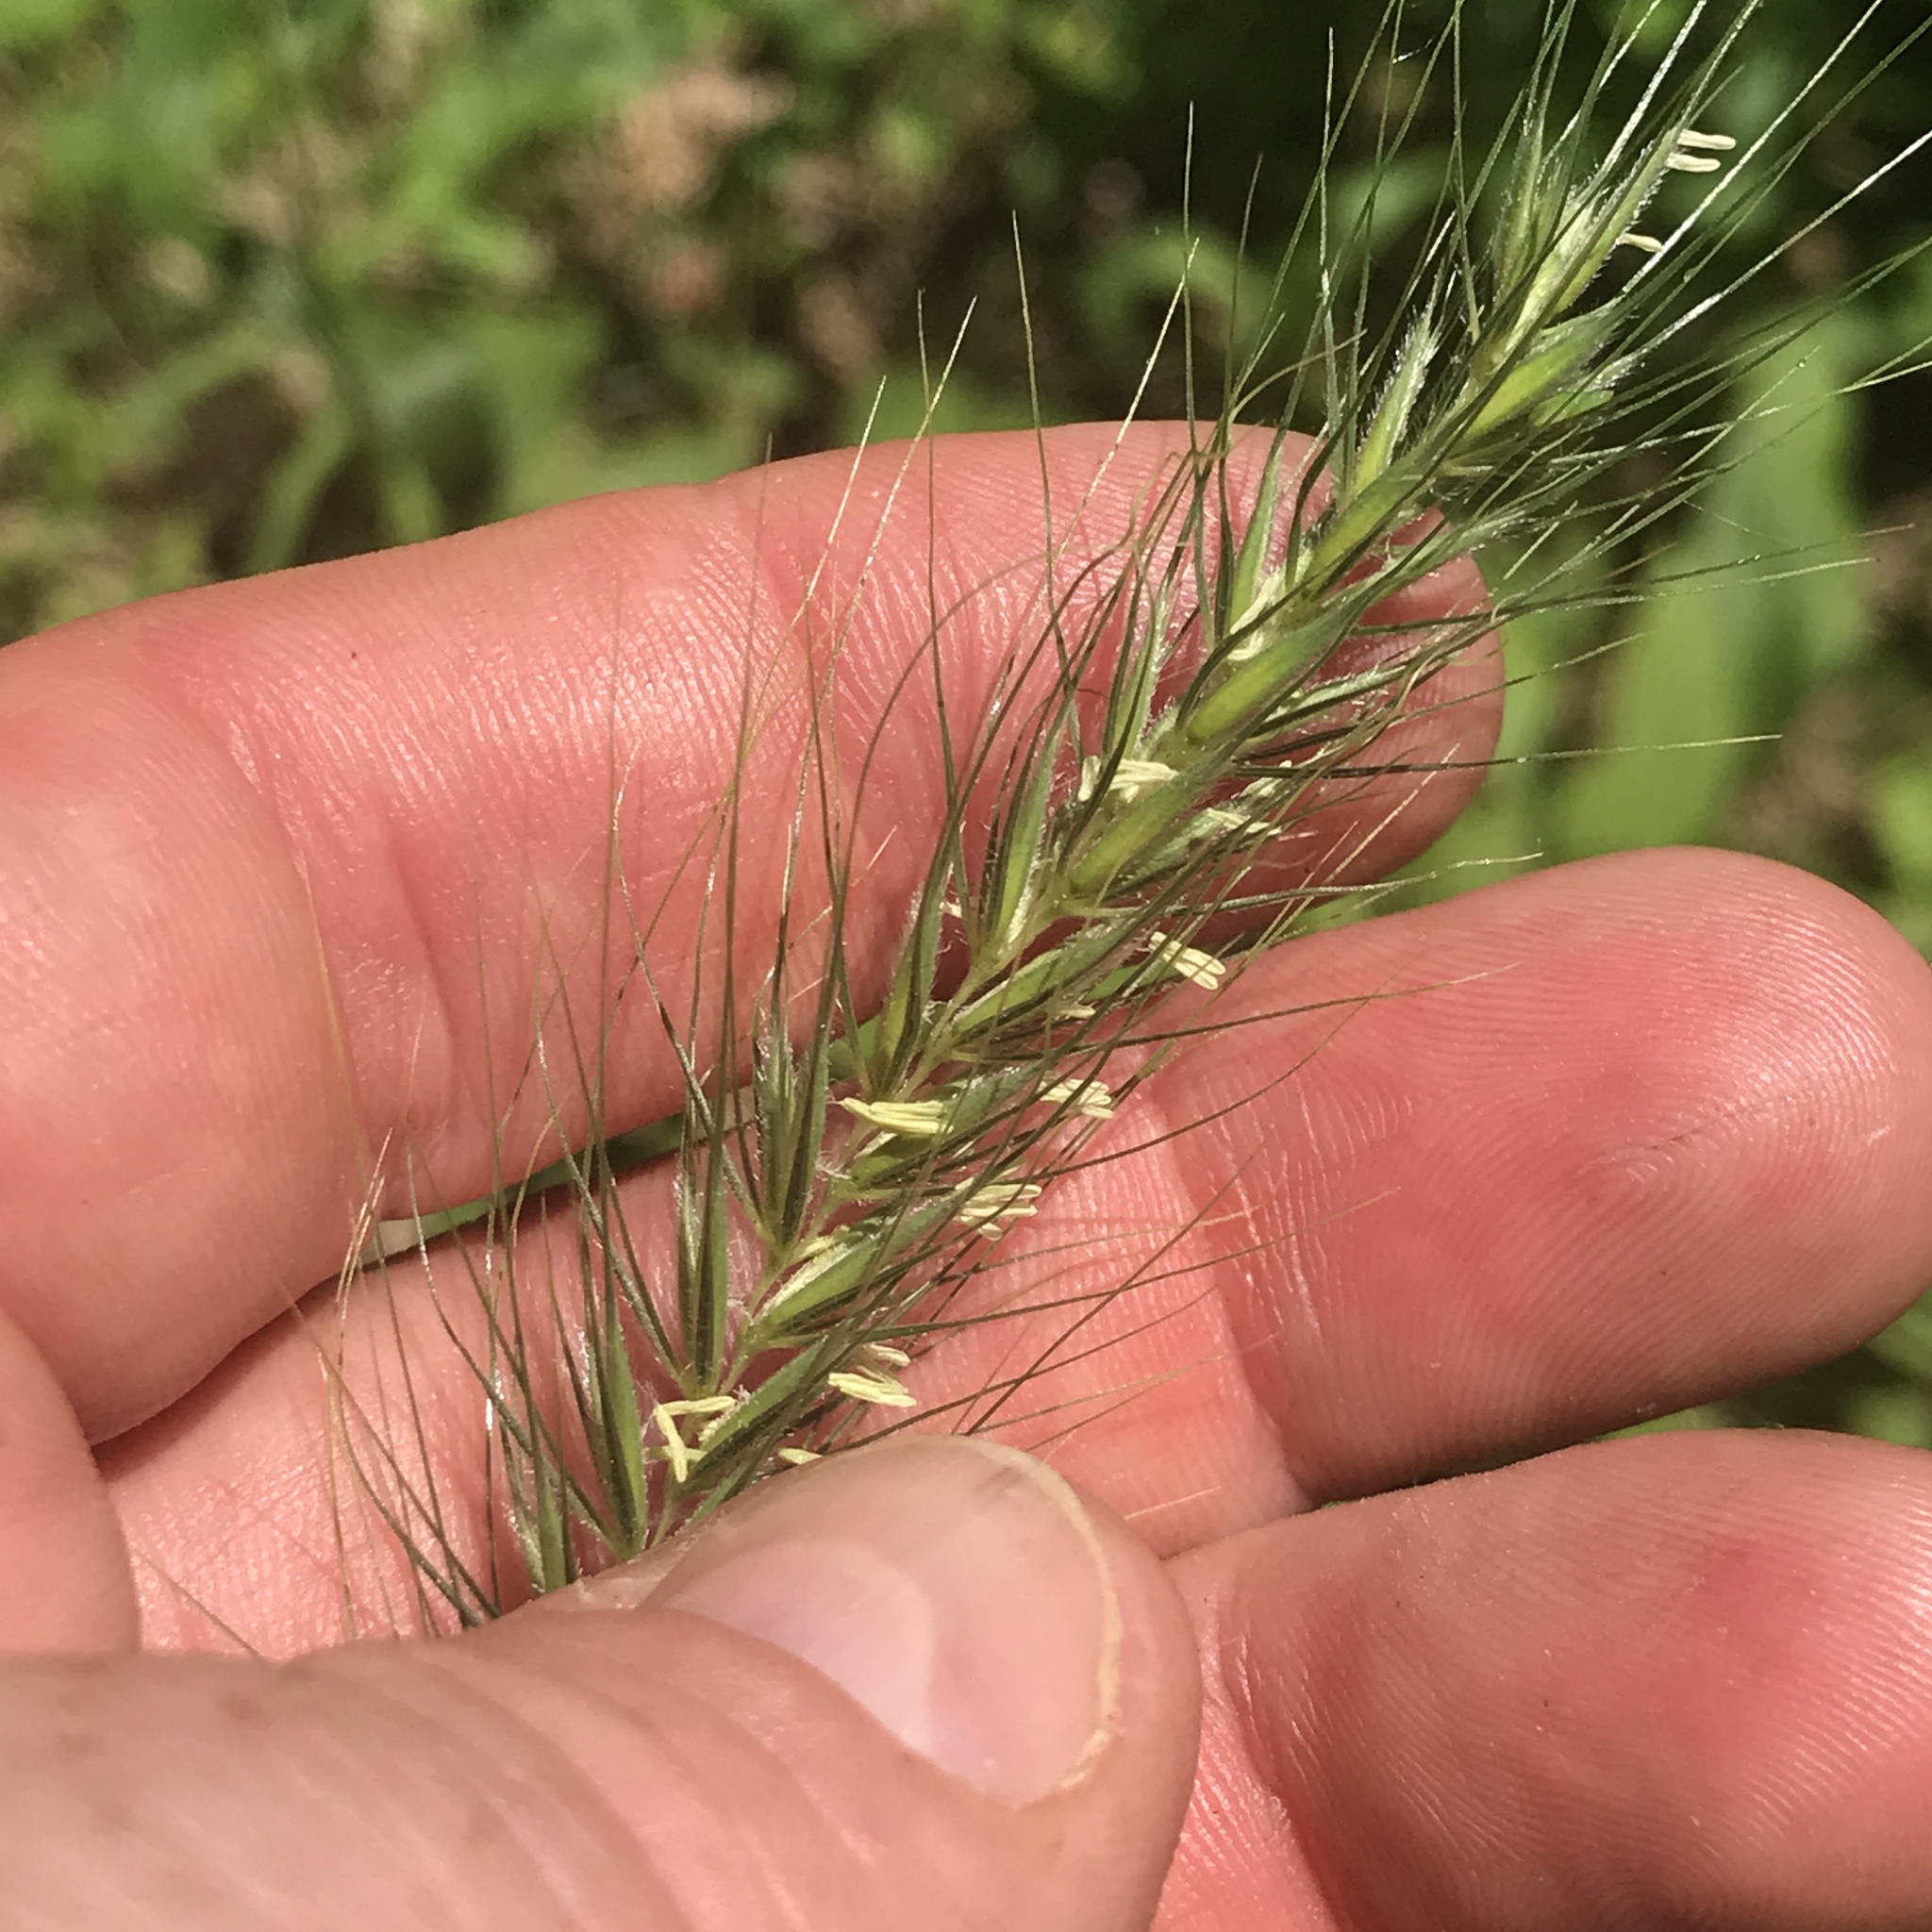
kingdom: Plantae
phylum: Tracheophyta
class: Liliopsida
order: Poales
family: Poaceae
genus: Elymus
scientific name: Elymus villosus
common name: Downy wild rye
